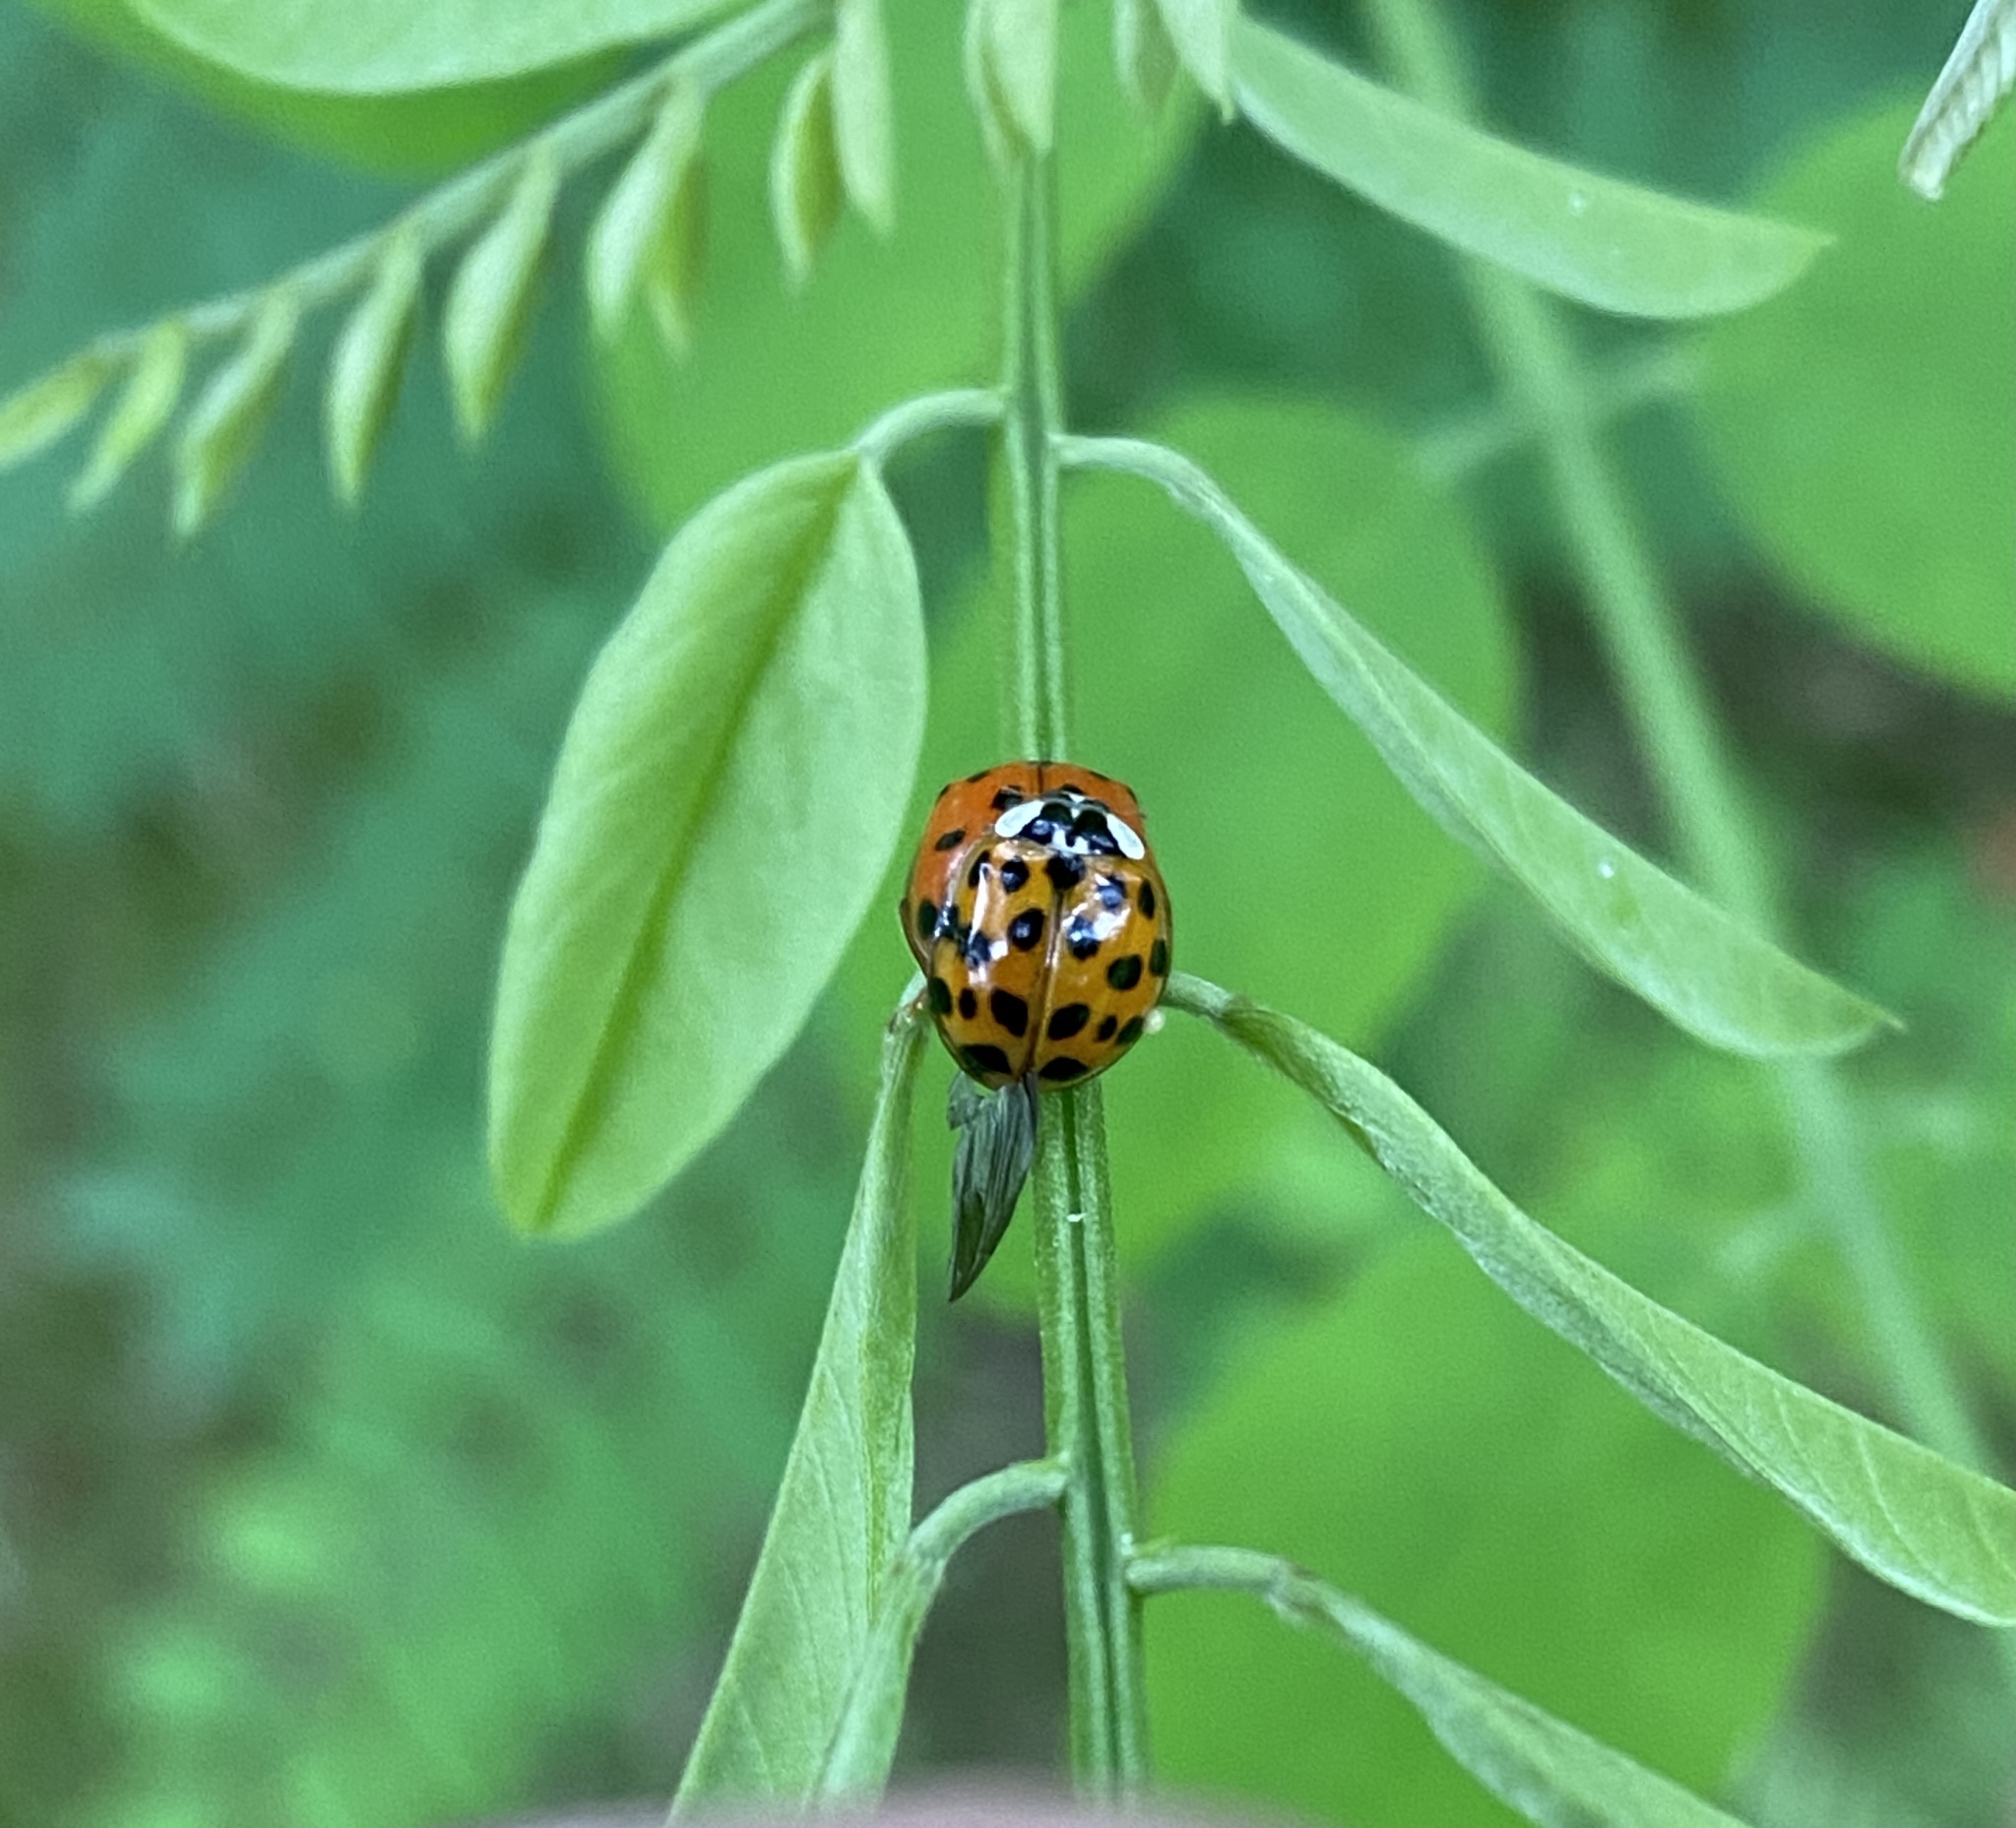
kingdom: Animalia
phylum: Arthropoda
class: Insecta
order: Coleoptera
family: Coccinellidae
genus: Harmonia
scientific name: Harmonia axyridis
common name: Harlequin ladybird
